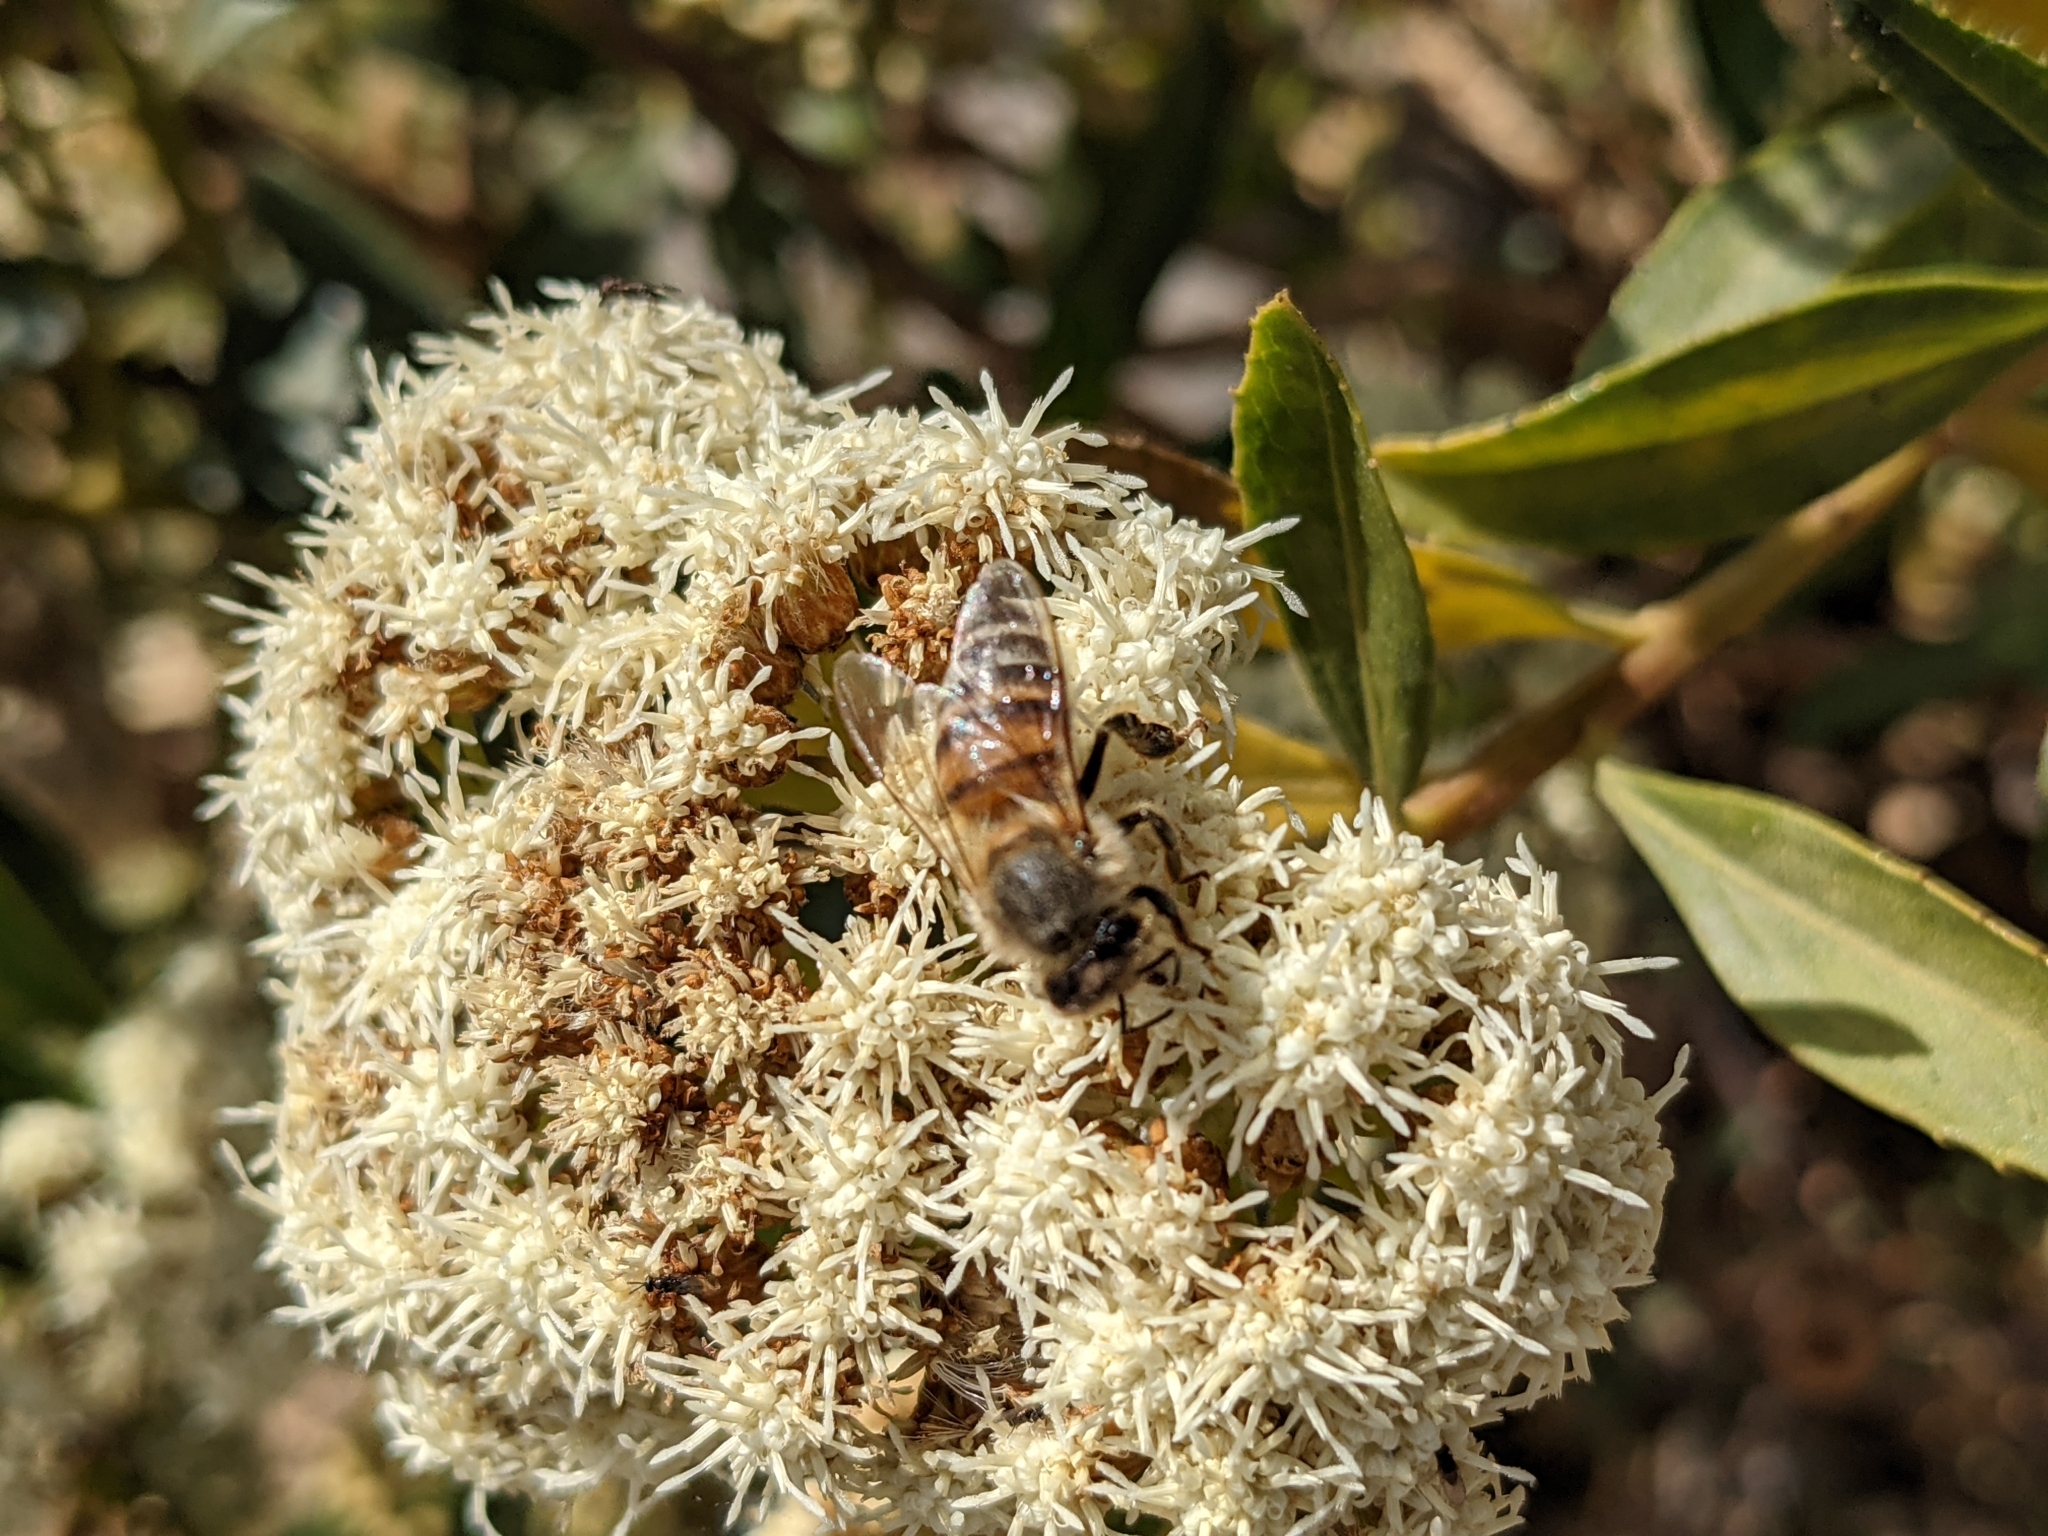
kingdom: Animalia
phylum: Arthropoda
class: Insecta
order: Hymenoptera
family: Apidae
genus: Apis
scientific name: Apis mellifera
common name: Honey bee
